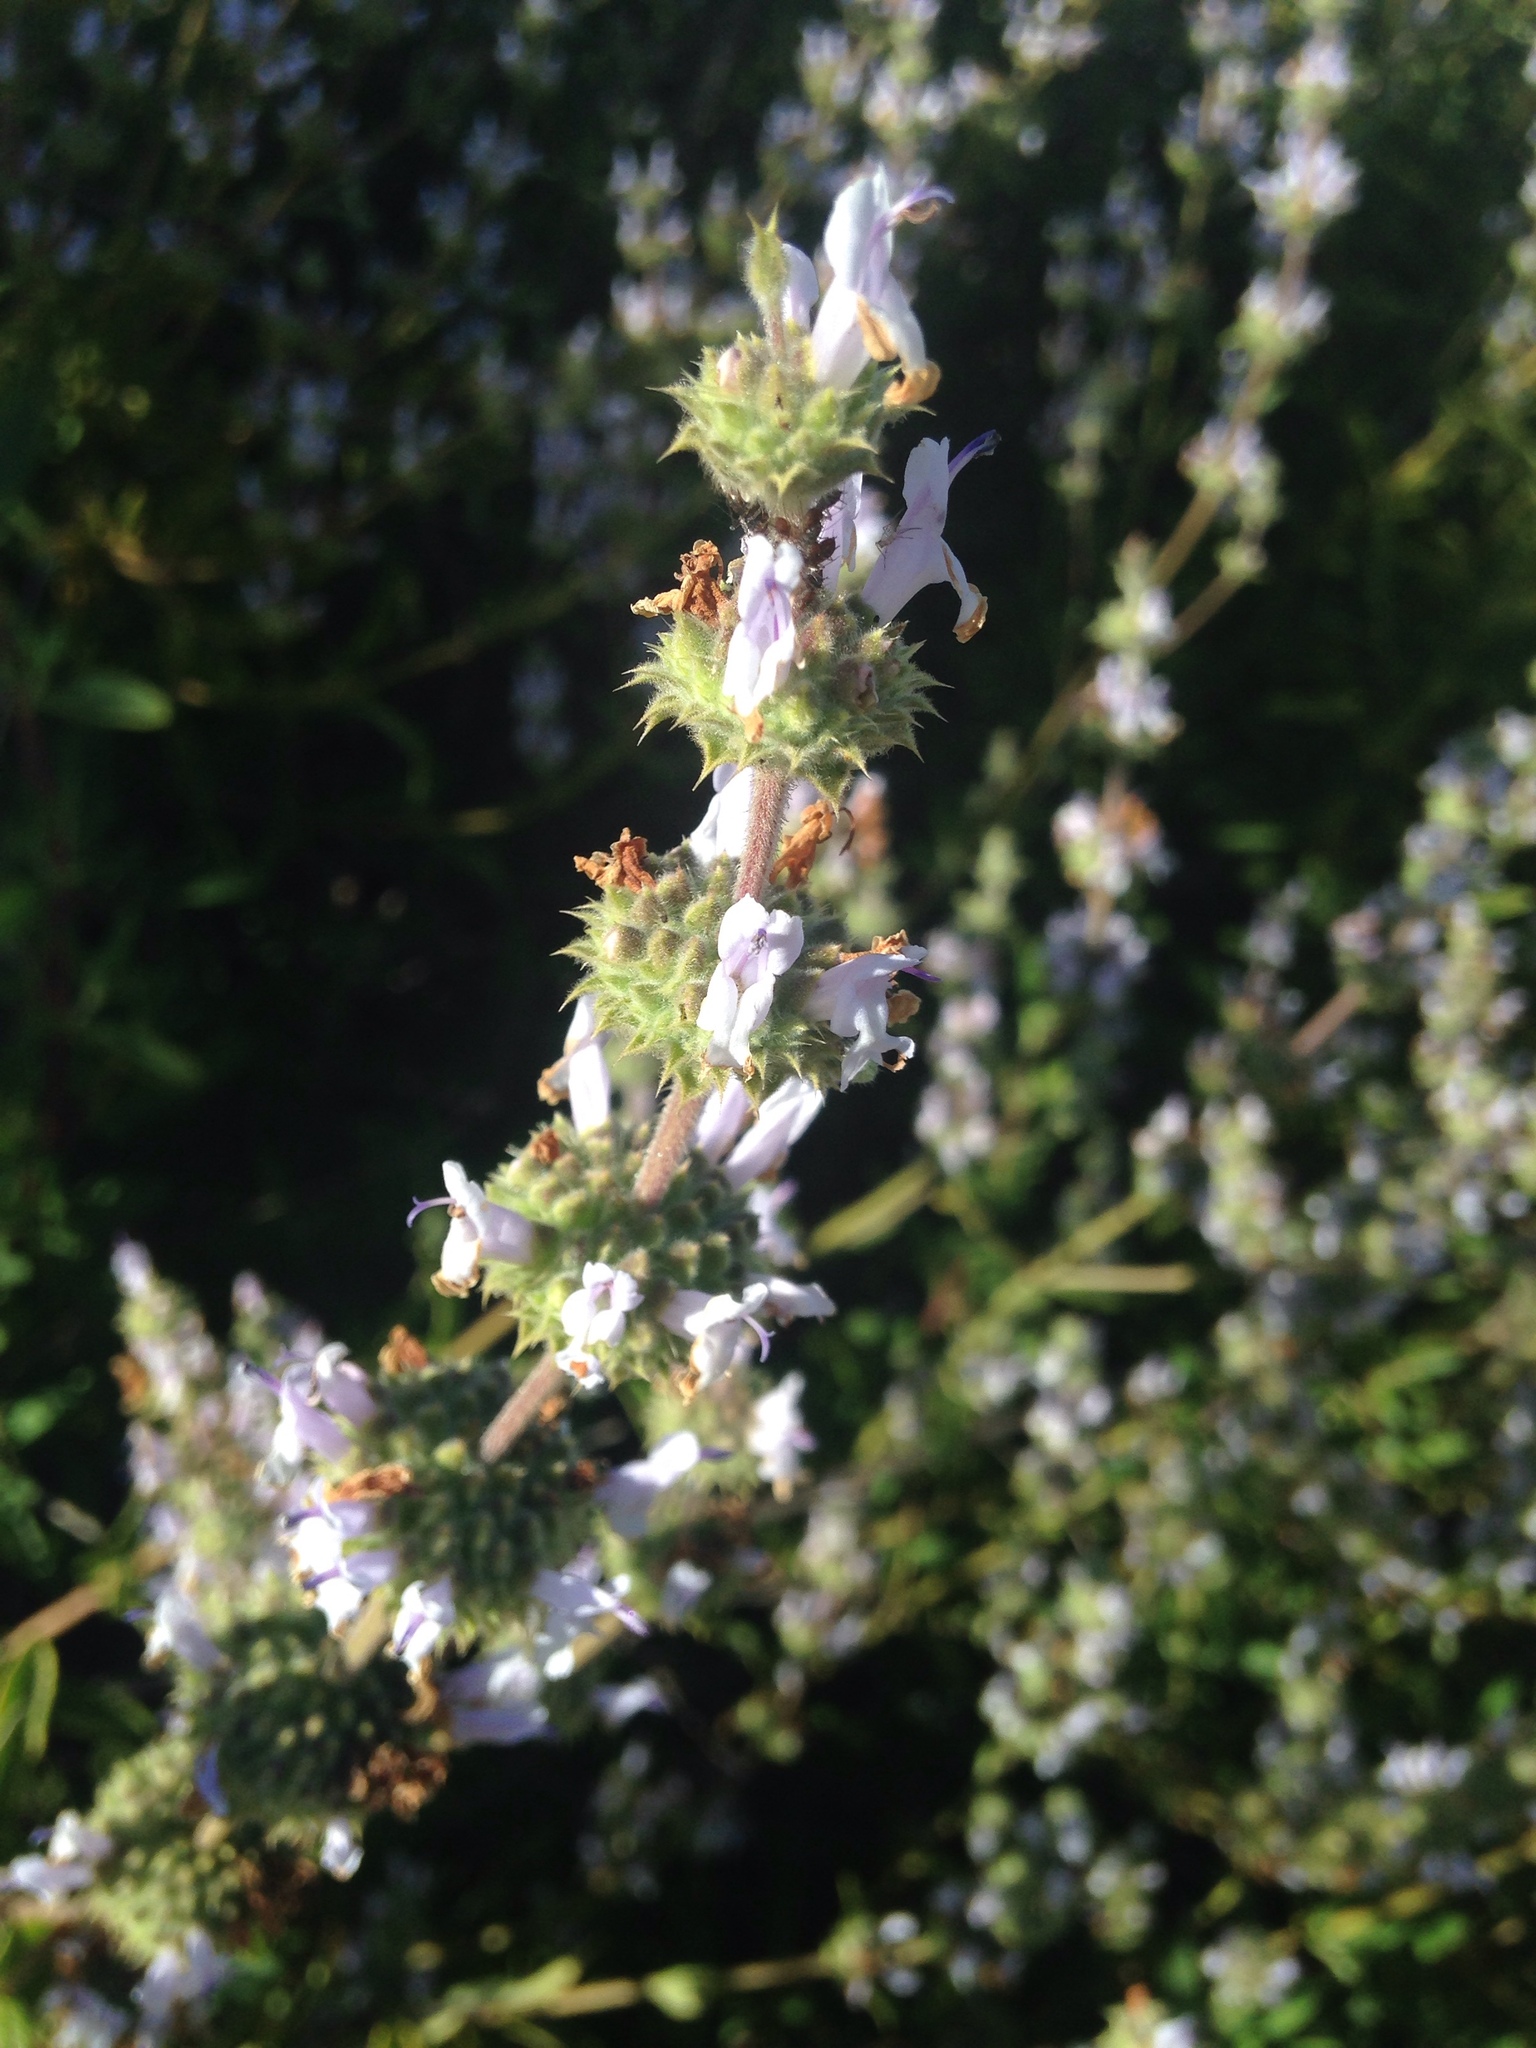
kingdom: Plantae
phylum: Tracheophyta
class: Magnoliopsida
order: Lamiales
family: Lamiaceae
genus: Salvia
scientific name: Salvia mellifera
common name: Black sage
